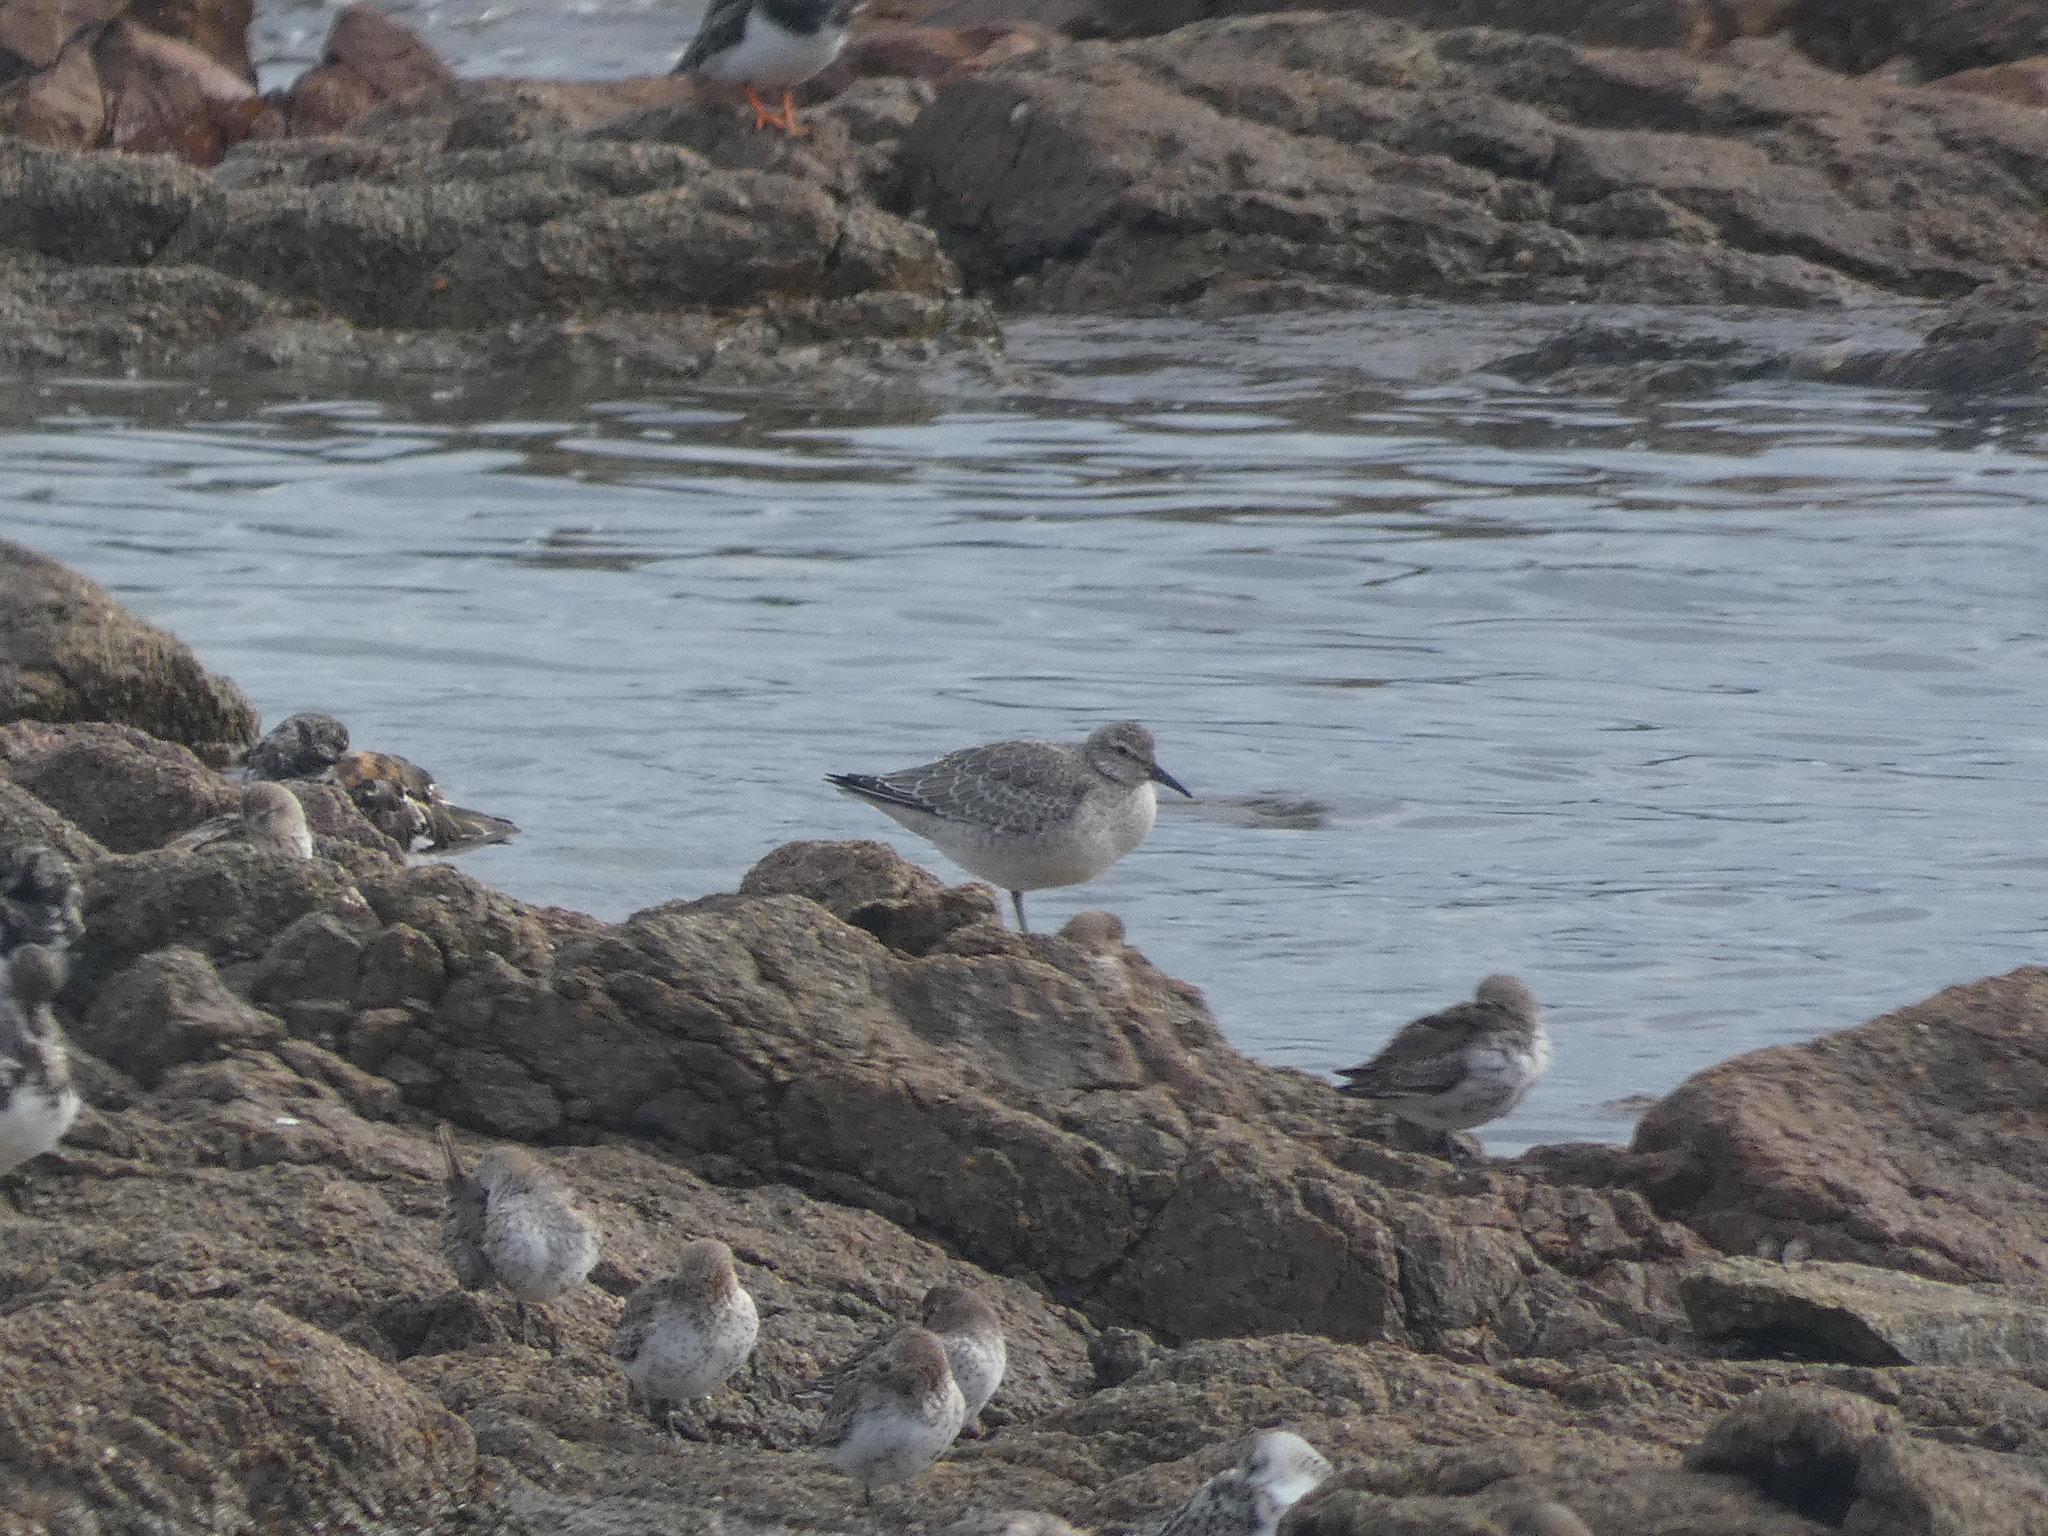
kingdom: Animalia
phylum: Chordata
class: Aves
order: Charadriiformes
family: Scolopacidae
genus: Calidris
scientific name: Calidris canutus
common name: Red knot
